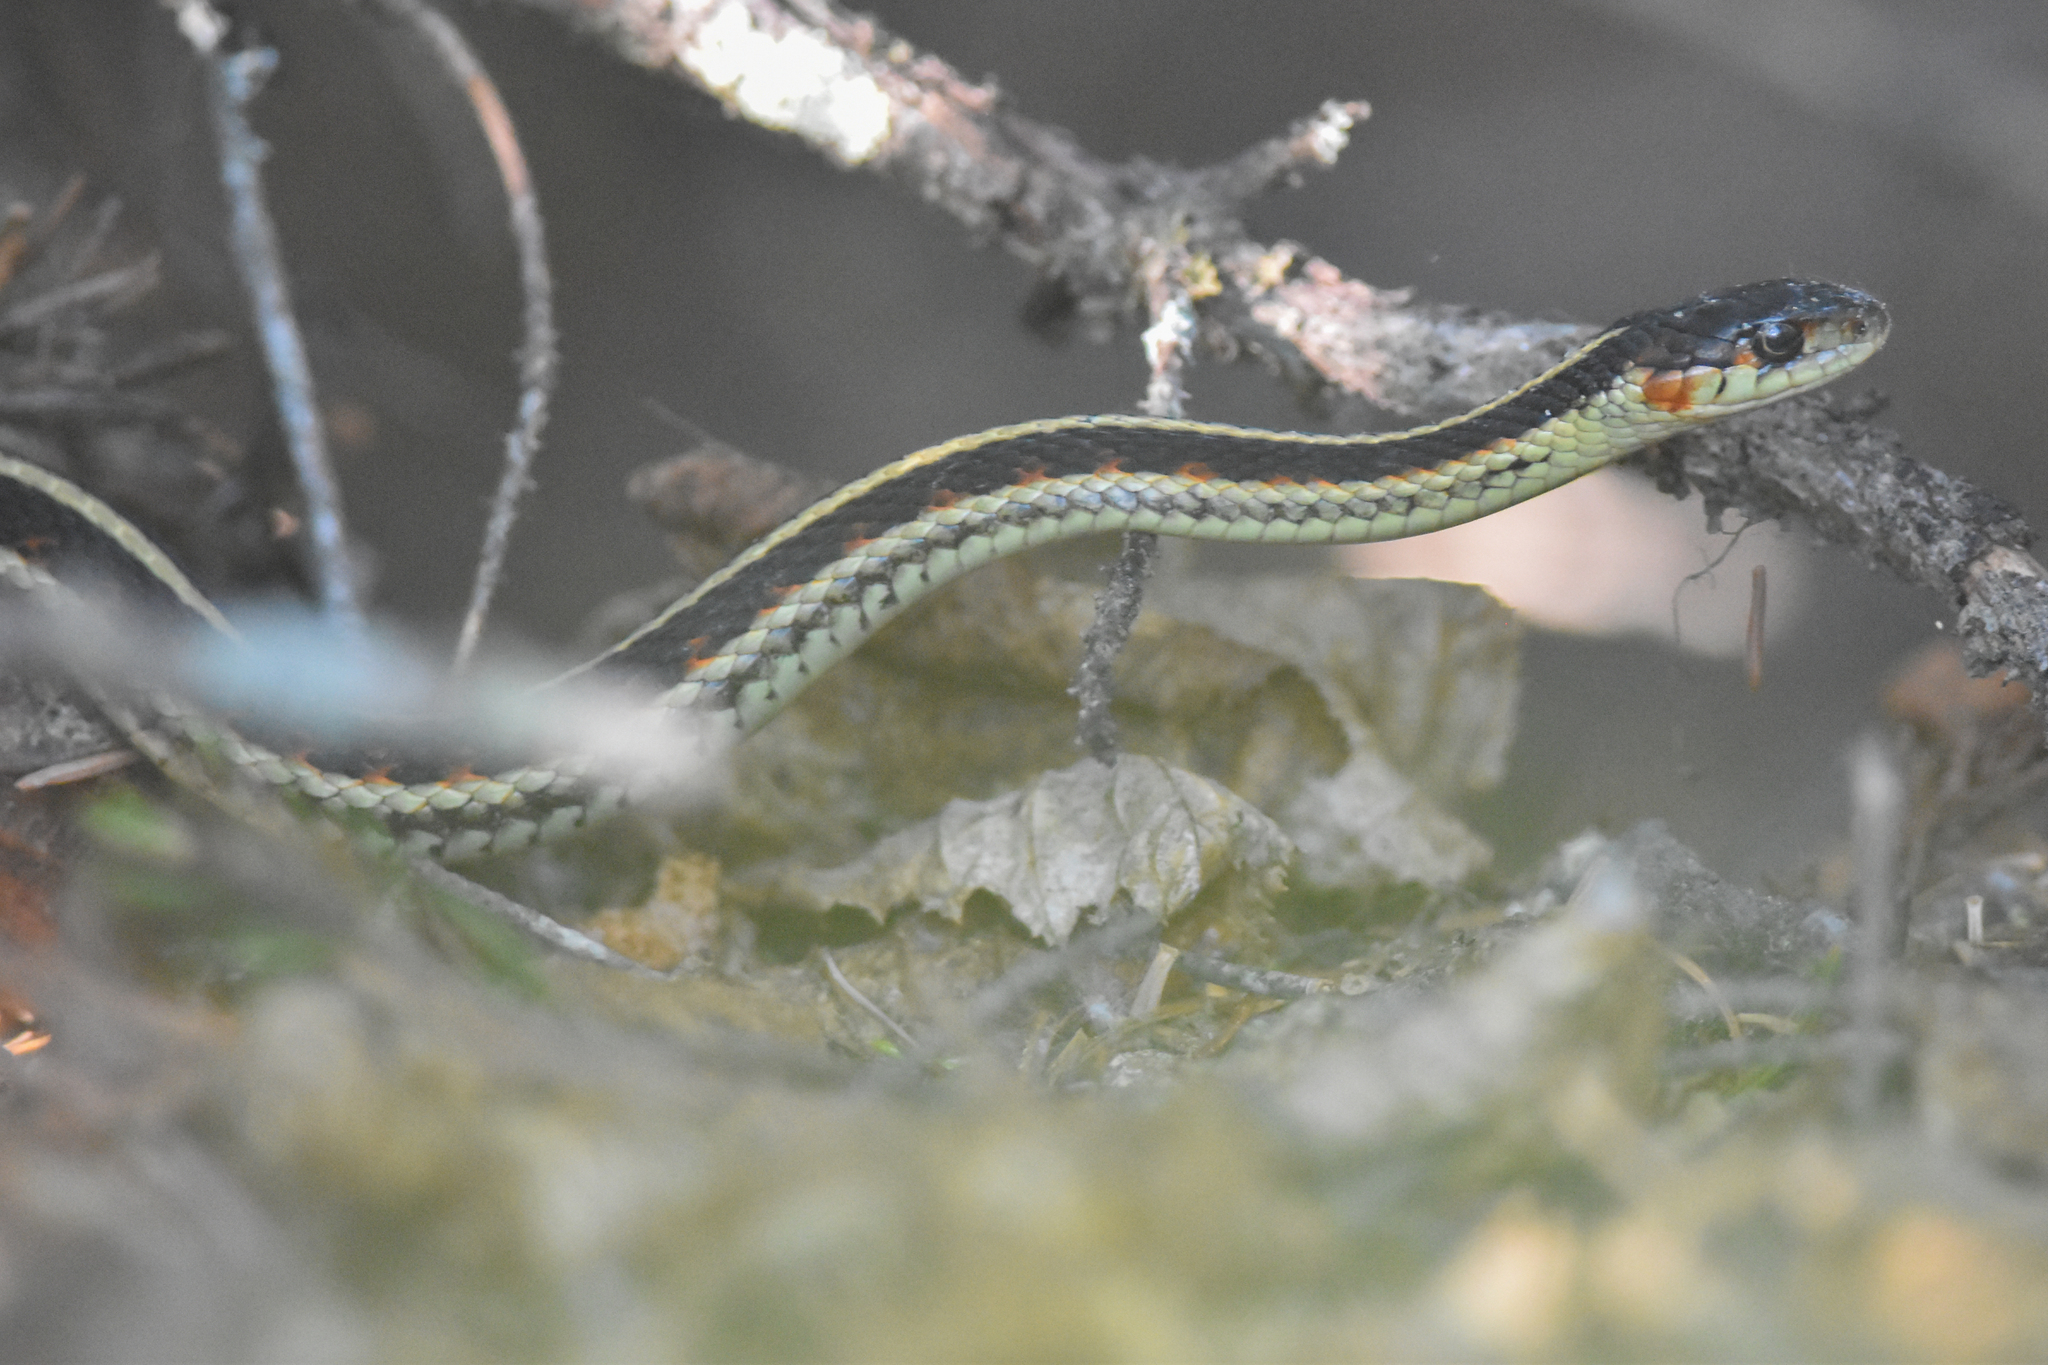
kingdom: Animalia
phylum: Chordata
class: Squamata
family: Colubridae
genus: Thamnophis
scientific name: Thamnophis sirtalis
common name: Common garter snake
